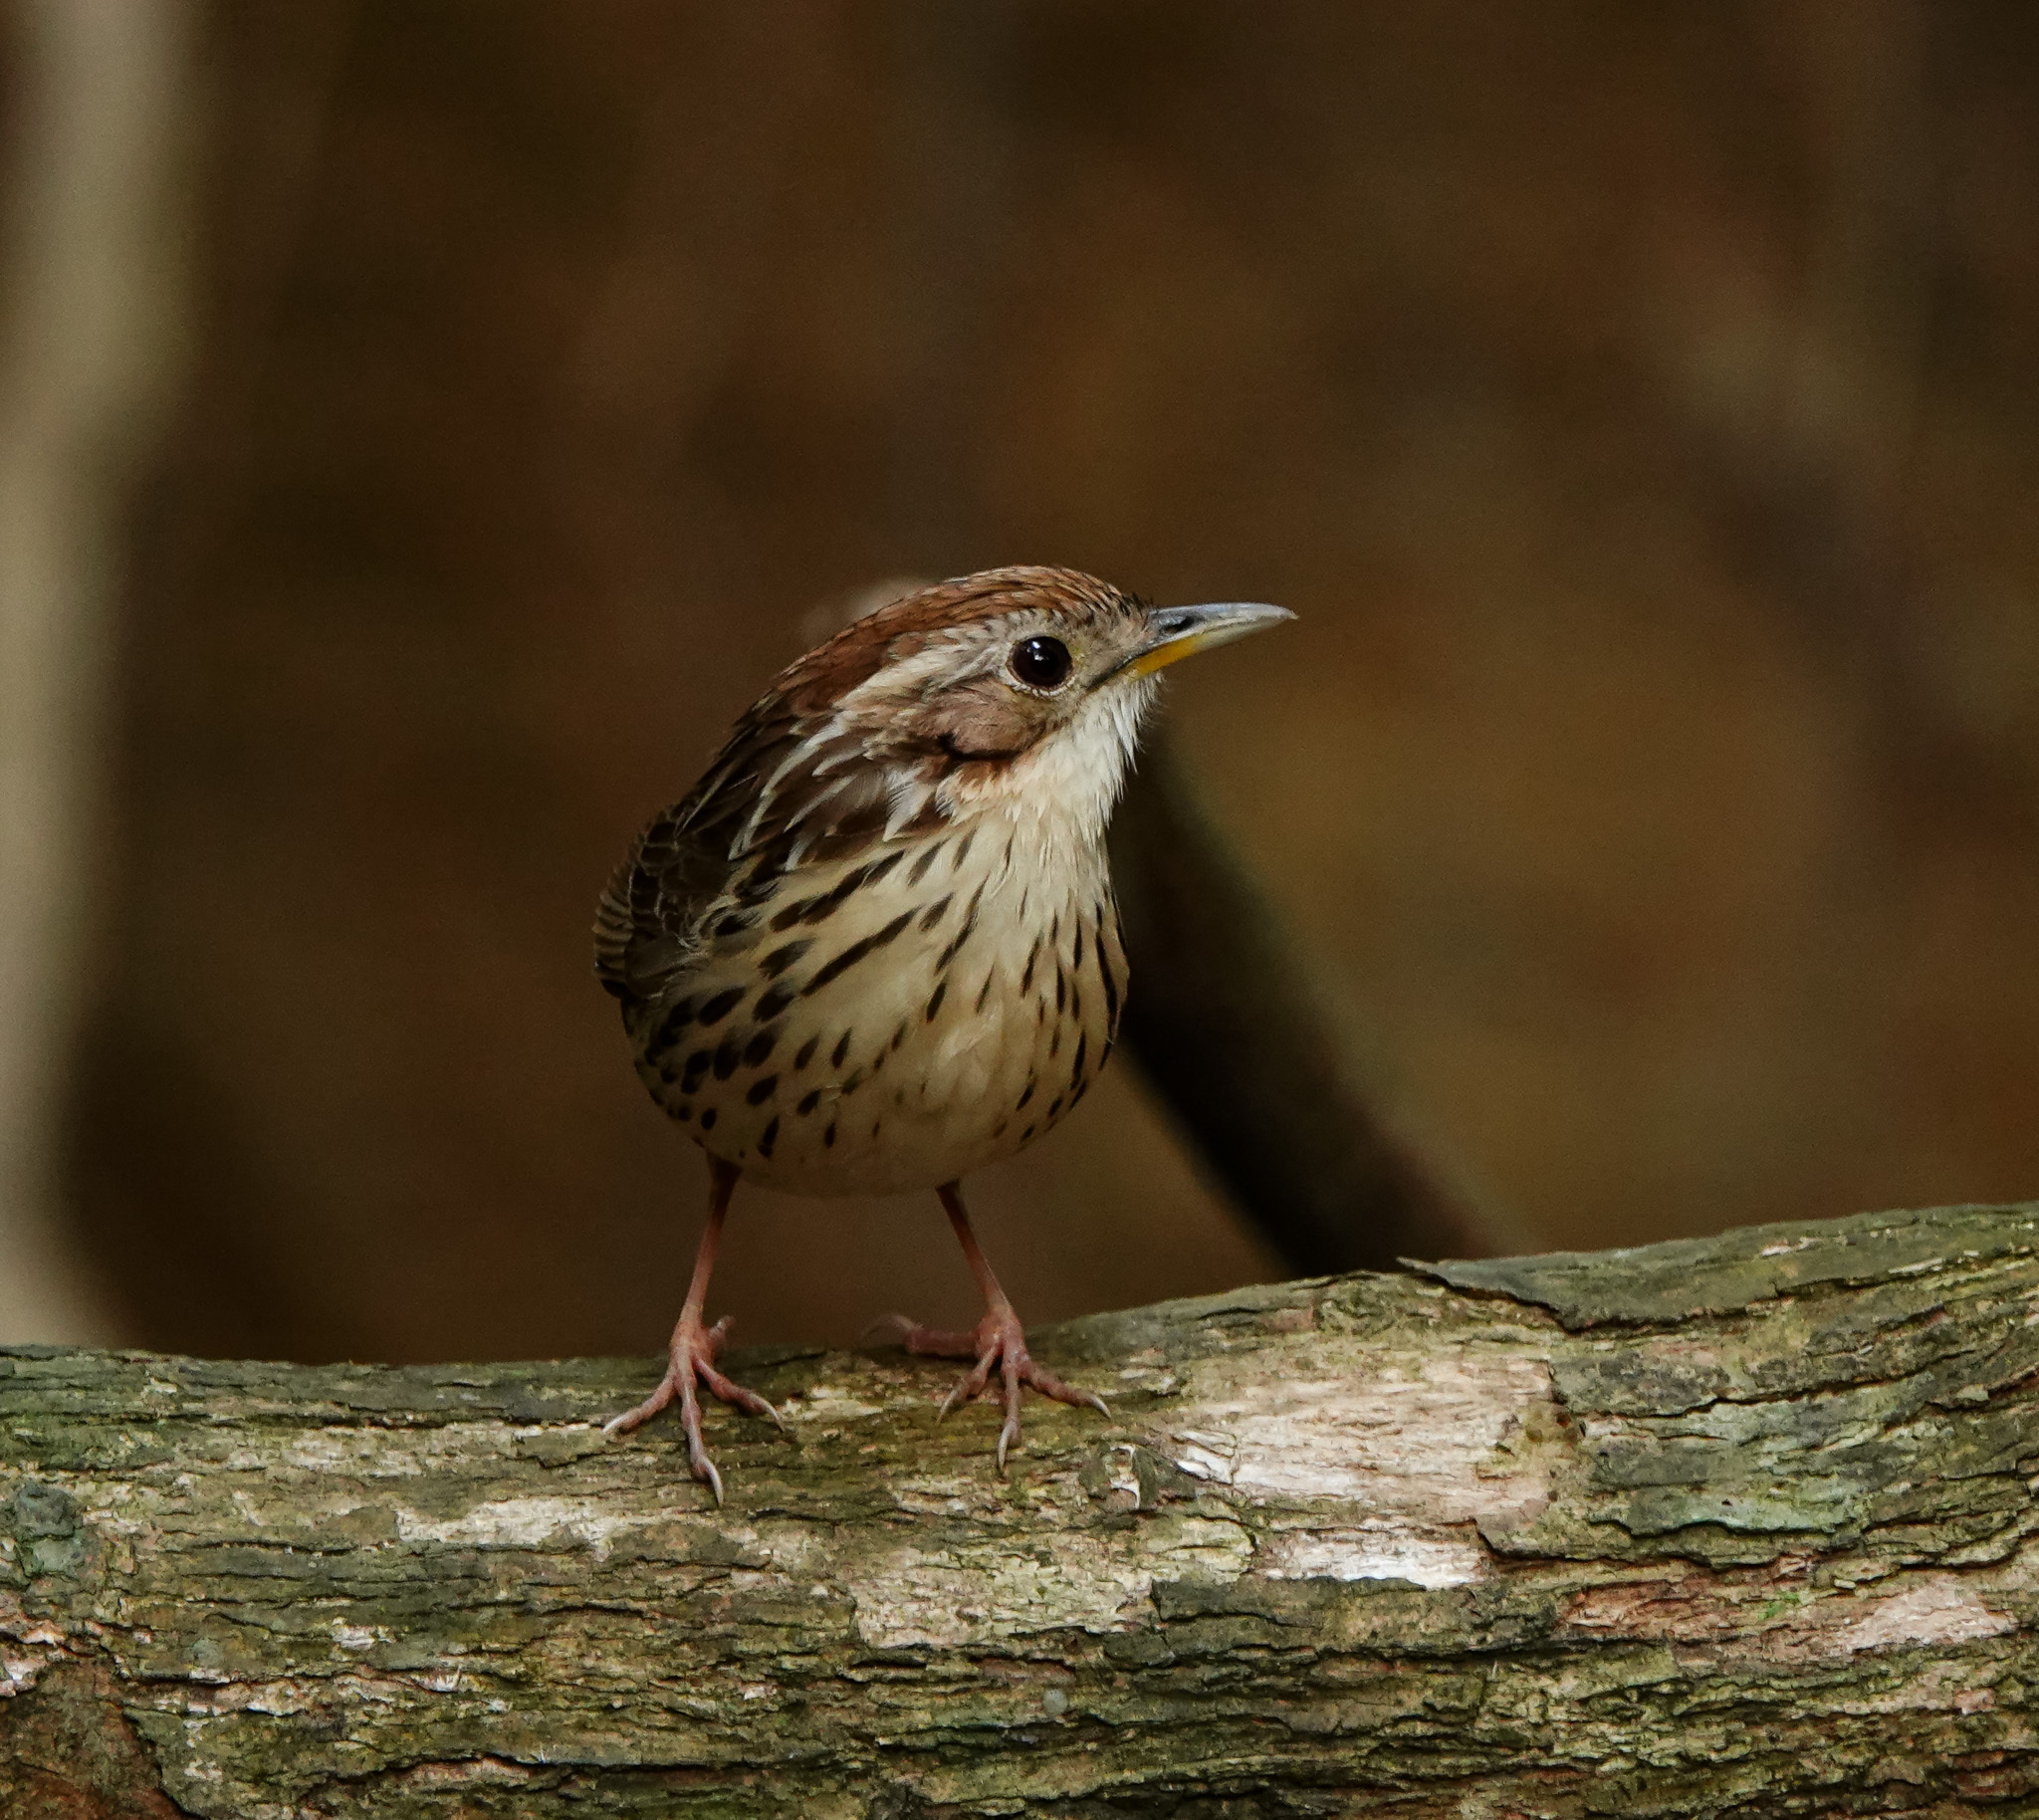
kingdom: Animalia
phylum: Chordata
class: Aves
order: Passeriformes
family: Pellorneidae
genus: Pellorneum
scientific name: Pellorneum ruficeps
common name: Puff-throated babbler
